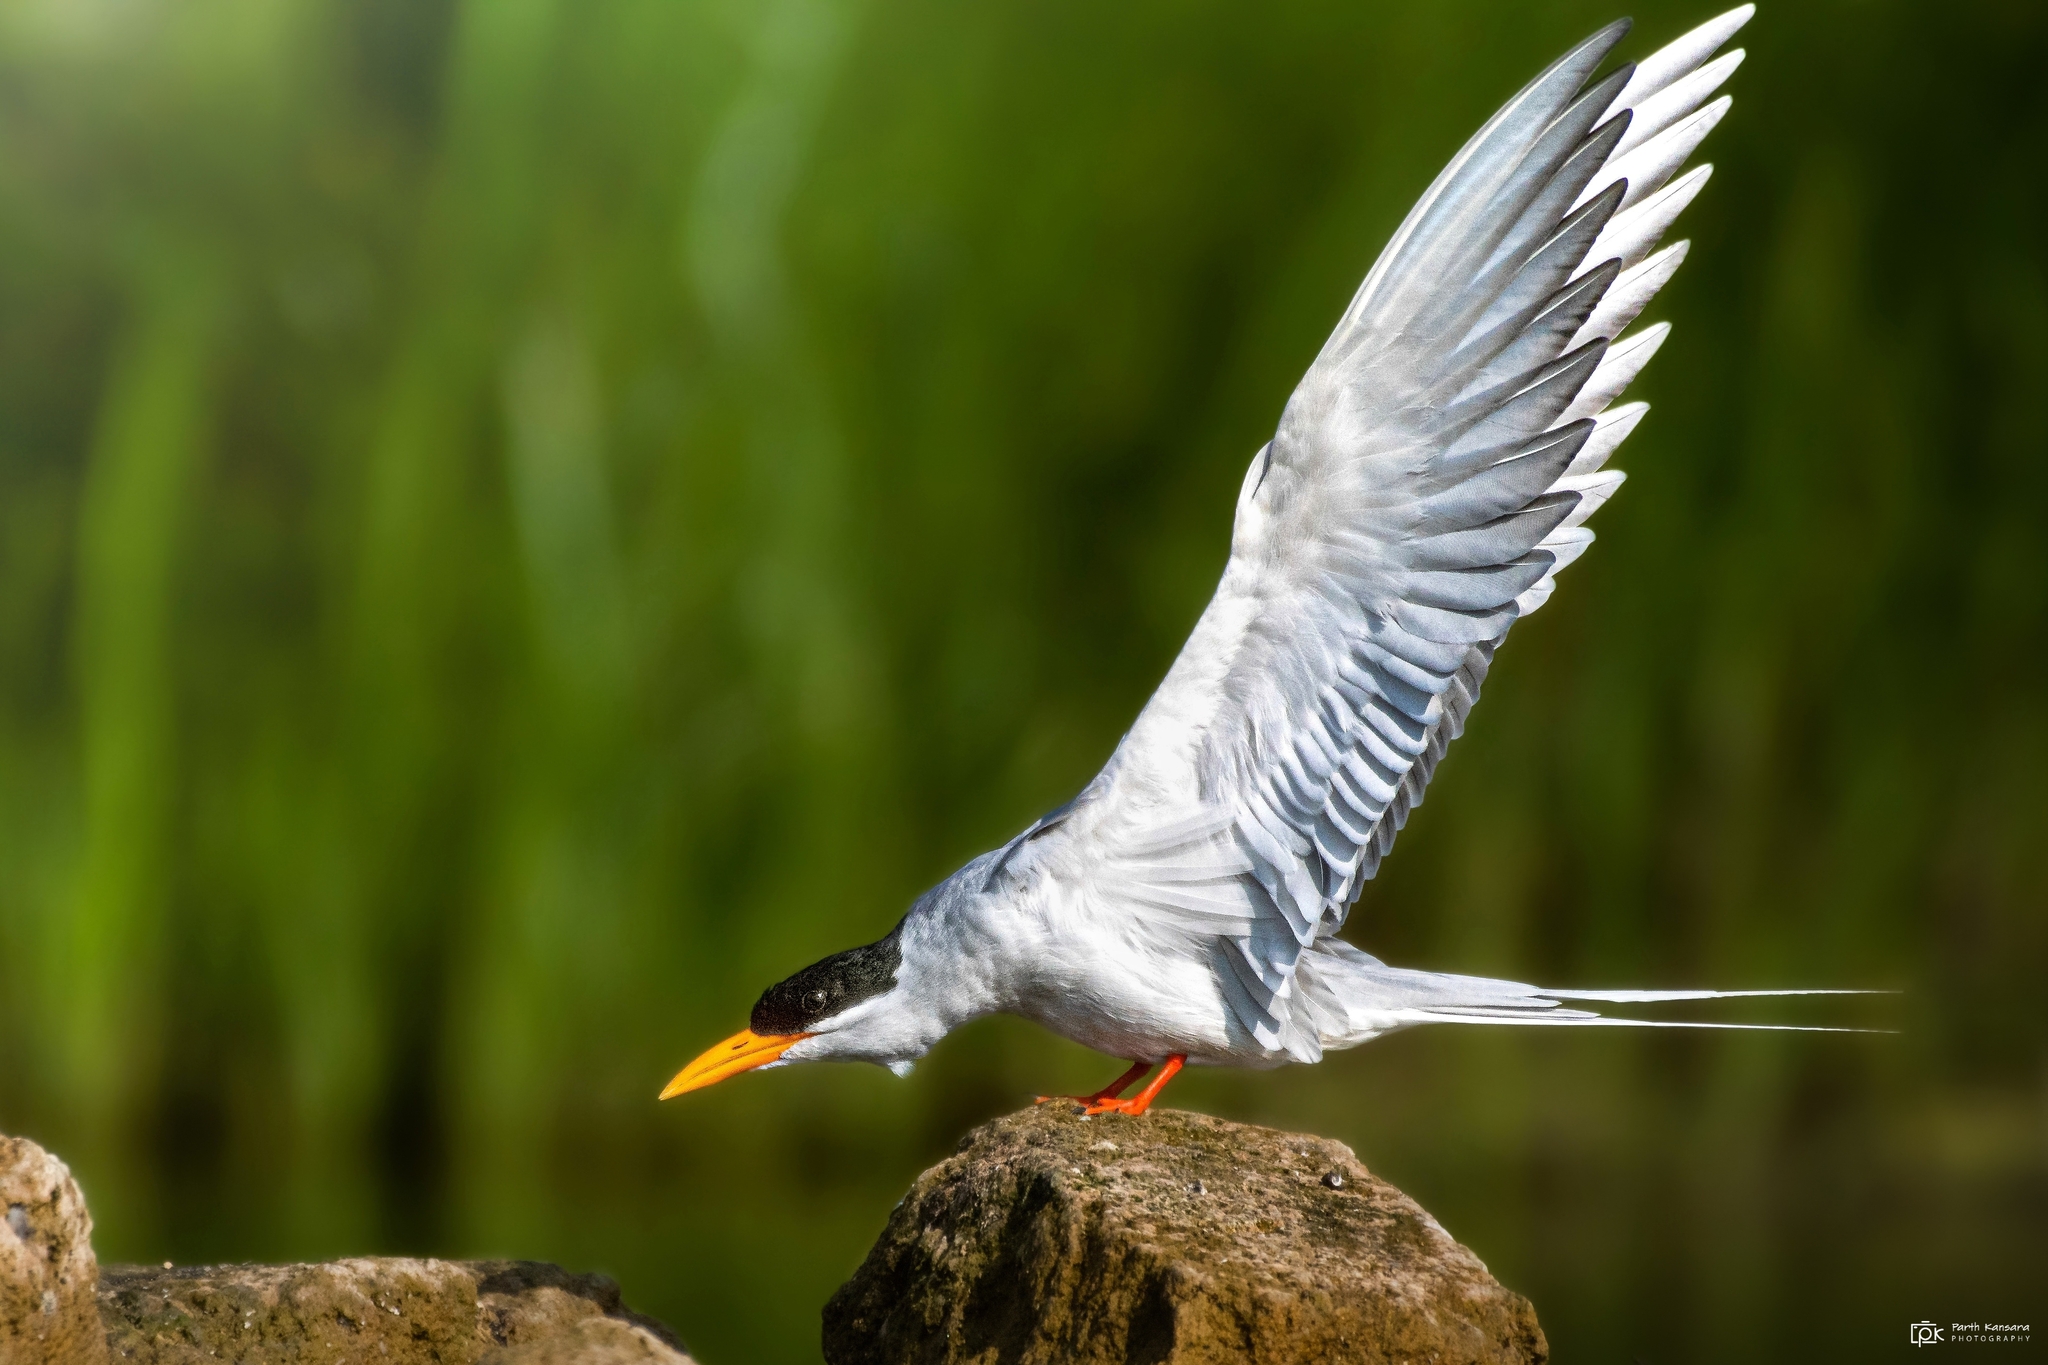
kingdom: Animalia
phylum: Chordata
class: Aves
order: Charadriiformes
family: Laridae
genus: Sterna
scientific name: Sterna aurantia
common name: River tern
